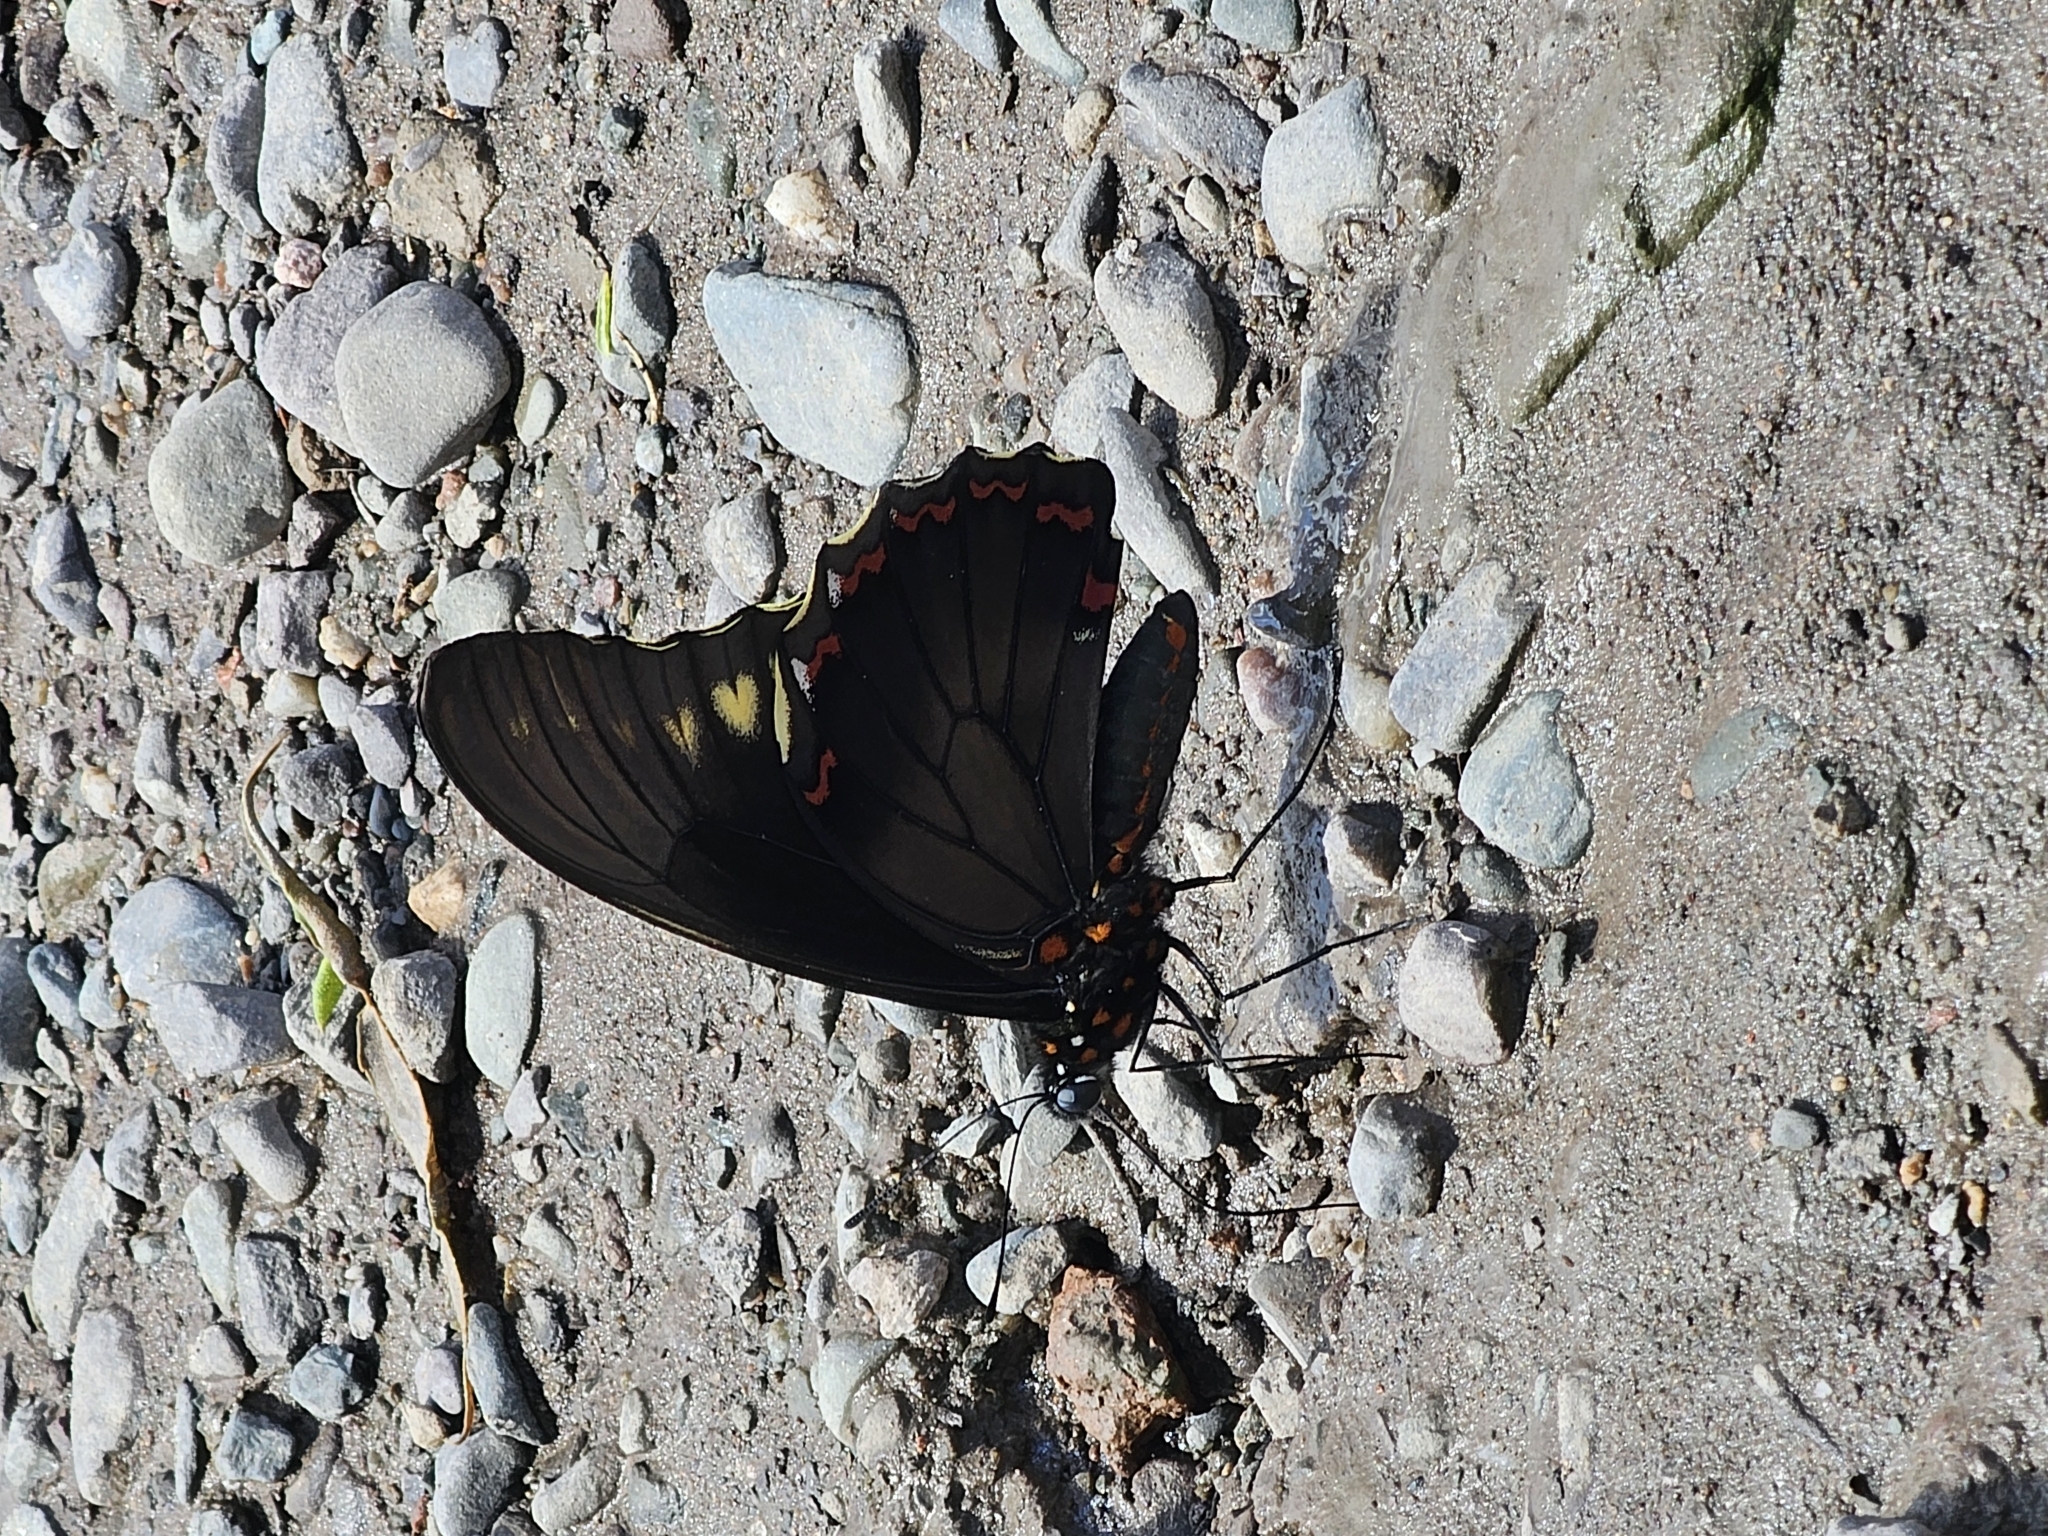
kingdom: Animalia
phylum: Arthropoda
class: Insecta
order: Lepidoptera
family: Papilionidae
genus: Battus
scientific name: Battus polydamas
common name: Polydamas swallowtail
